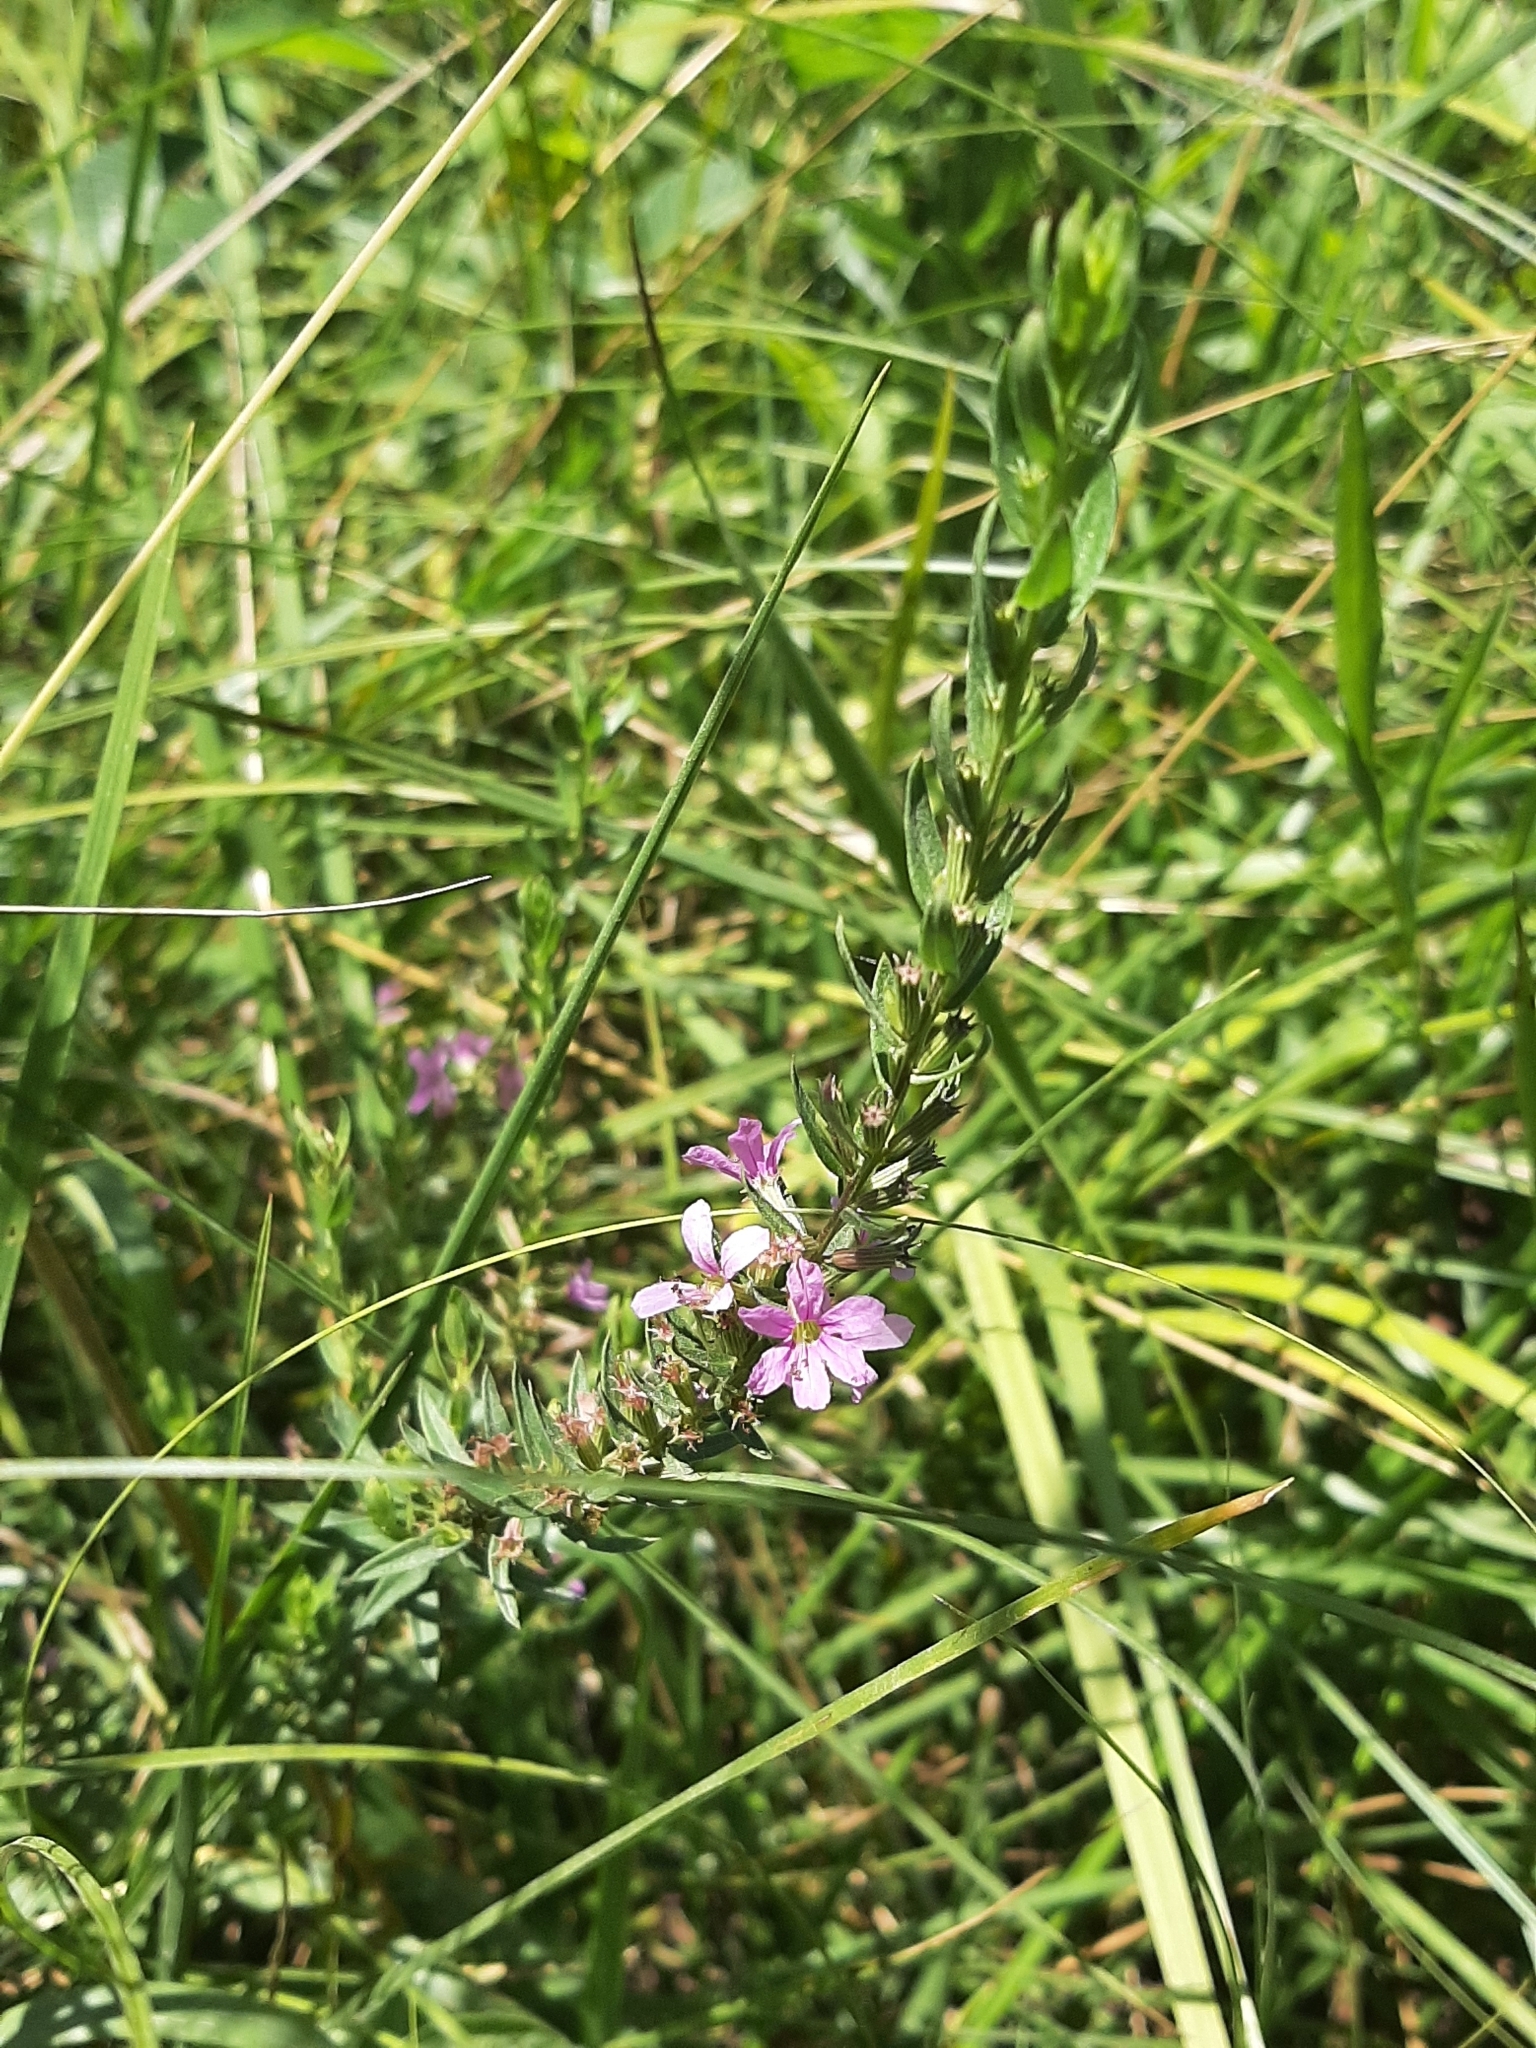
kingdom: Plantae
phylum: Tracheophyta
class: Magnoliopsida
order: Myrtales
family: Lythraceae
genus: Lythrum
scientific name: Lythrum alatum
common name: Winged loosestrife
